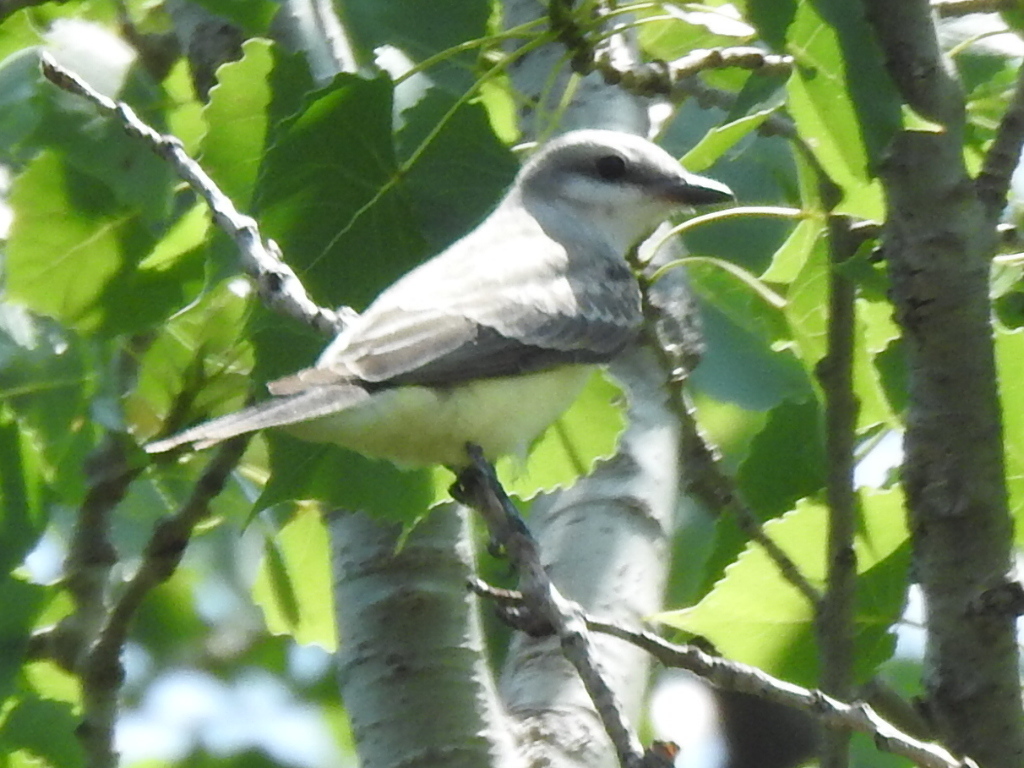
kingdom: Animalia
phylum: Chordata
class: Aves
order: Passeriformes
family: Tyrannidae
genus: Tyrannus
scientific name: Tyrannus verticalis
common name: Western kingbird
